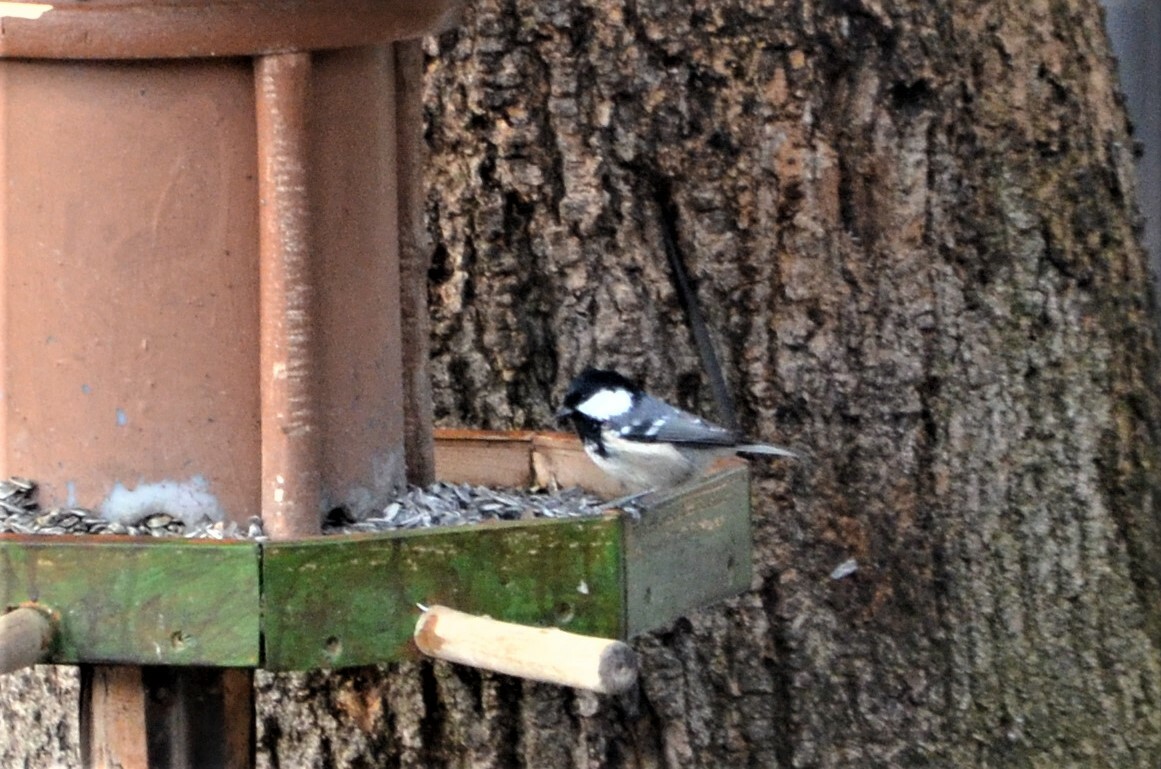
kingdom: Animalia
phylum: Chordata
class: Aves
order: Passeriformes
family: Paridae
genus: Periparus
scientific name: Periparus ater
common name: Coal tit
